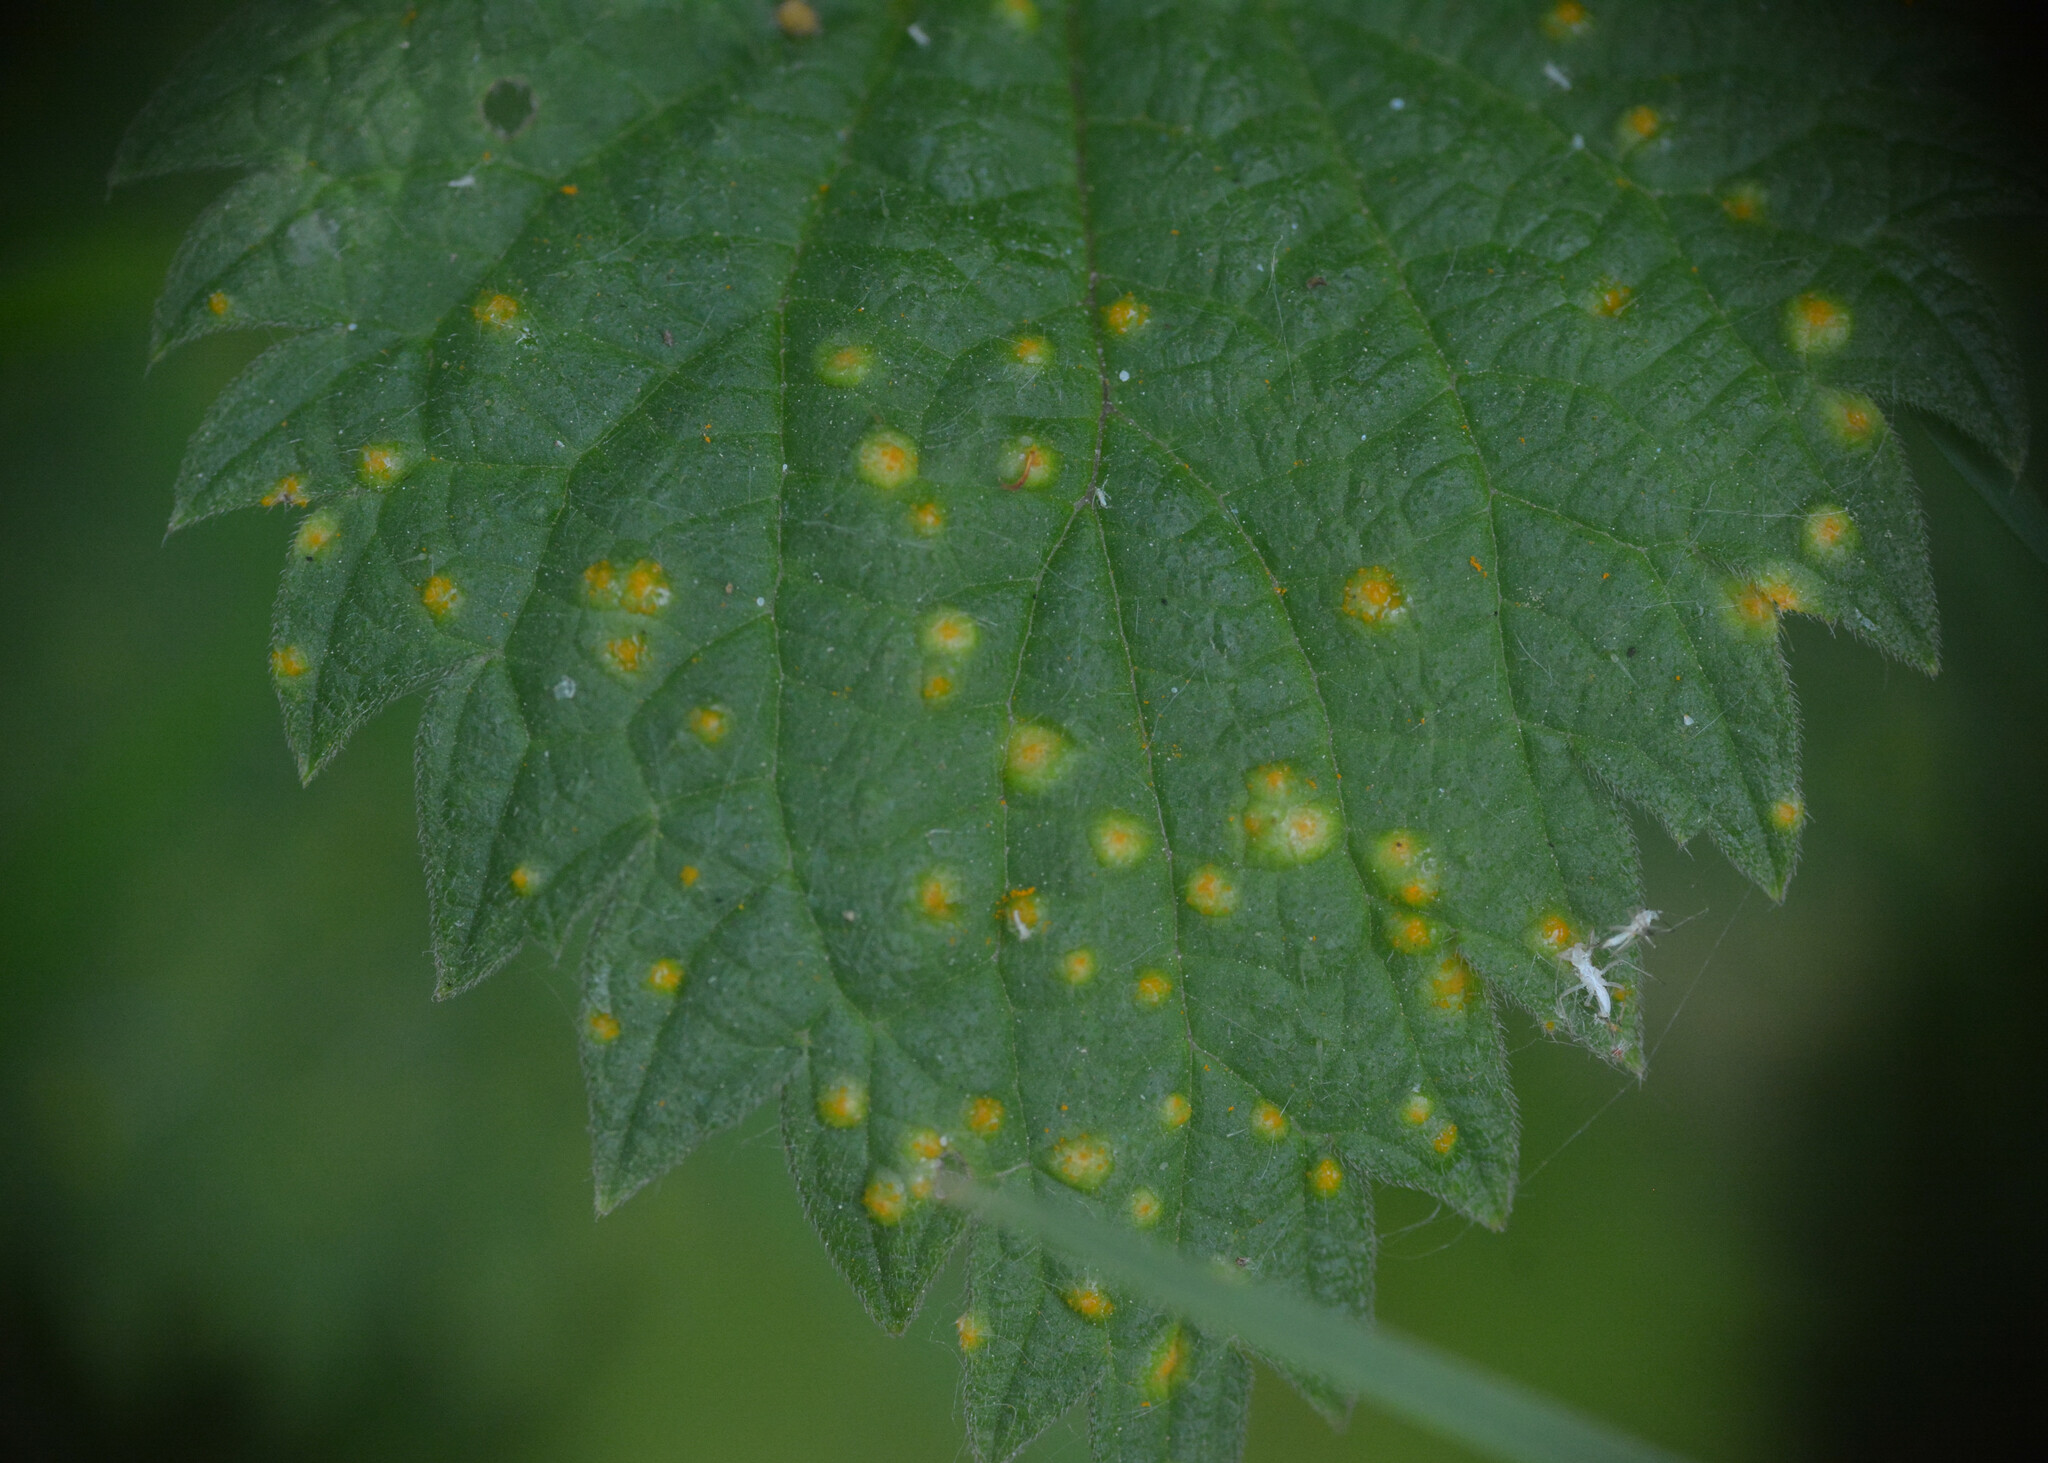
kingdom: Fungi
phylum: Basidiomycota
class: Pucciniomycetes
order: Pucciniales
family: Pucciniaceae
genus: Puccinia
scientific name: Puccinia urticata
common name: Nettle clustercup rust fungus
